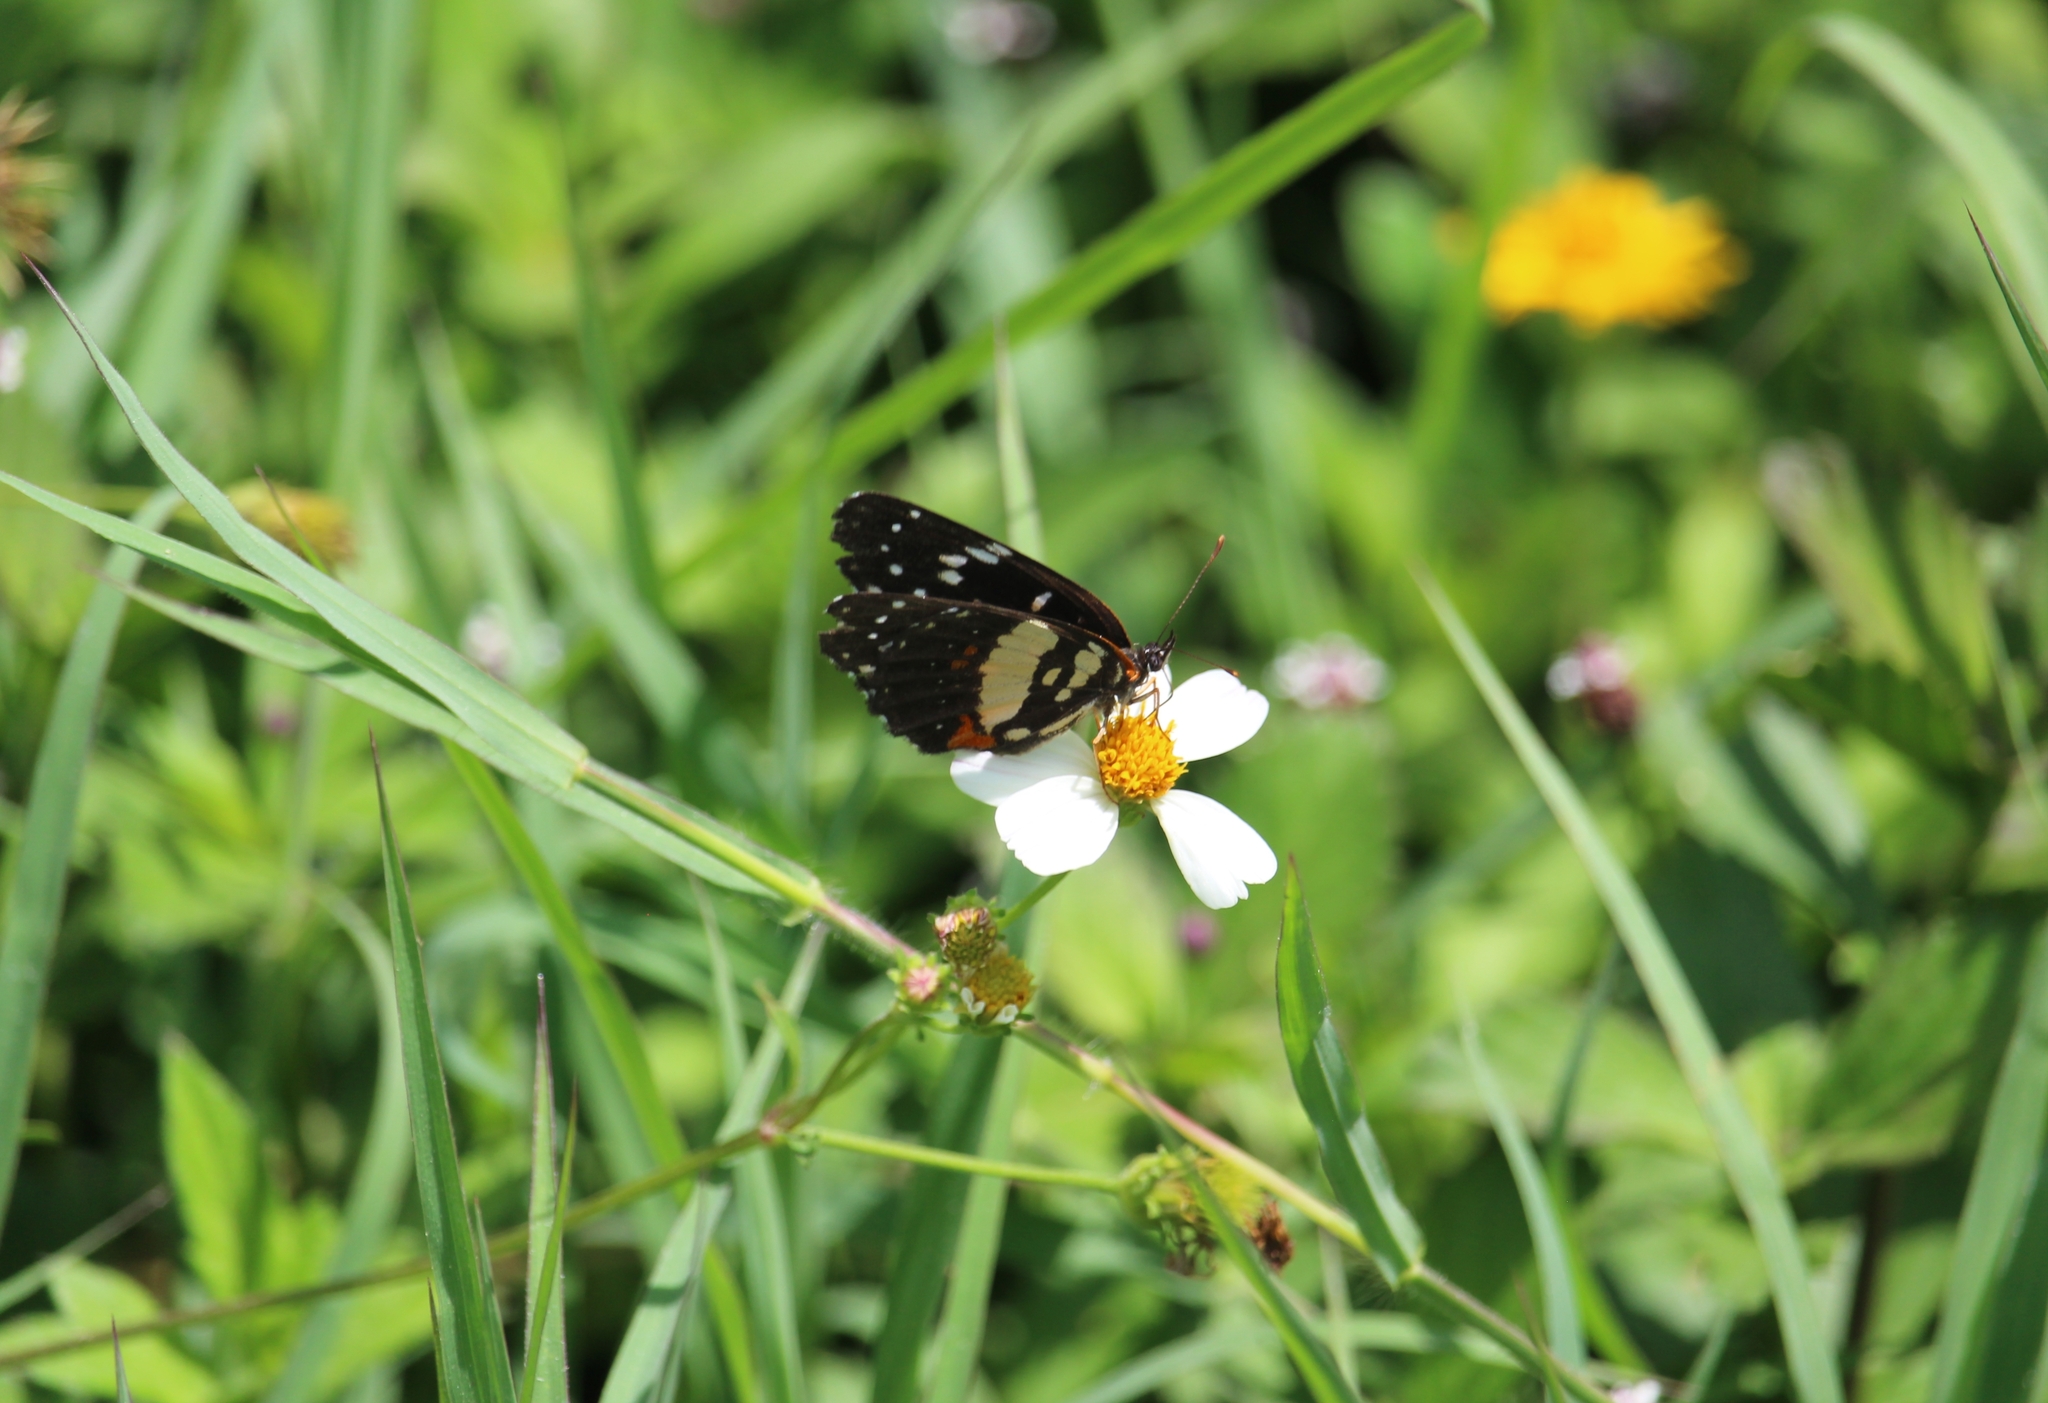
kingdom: Animalia
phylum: Arthropoda
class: Insecta
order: Lepidoptera
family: Nymphalidae
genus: Chlosyne
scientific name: Chlosyne erodyle
